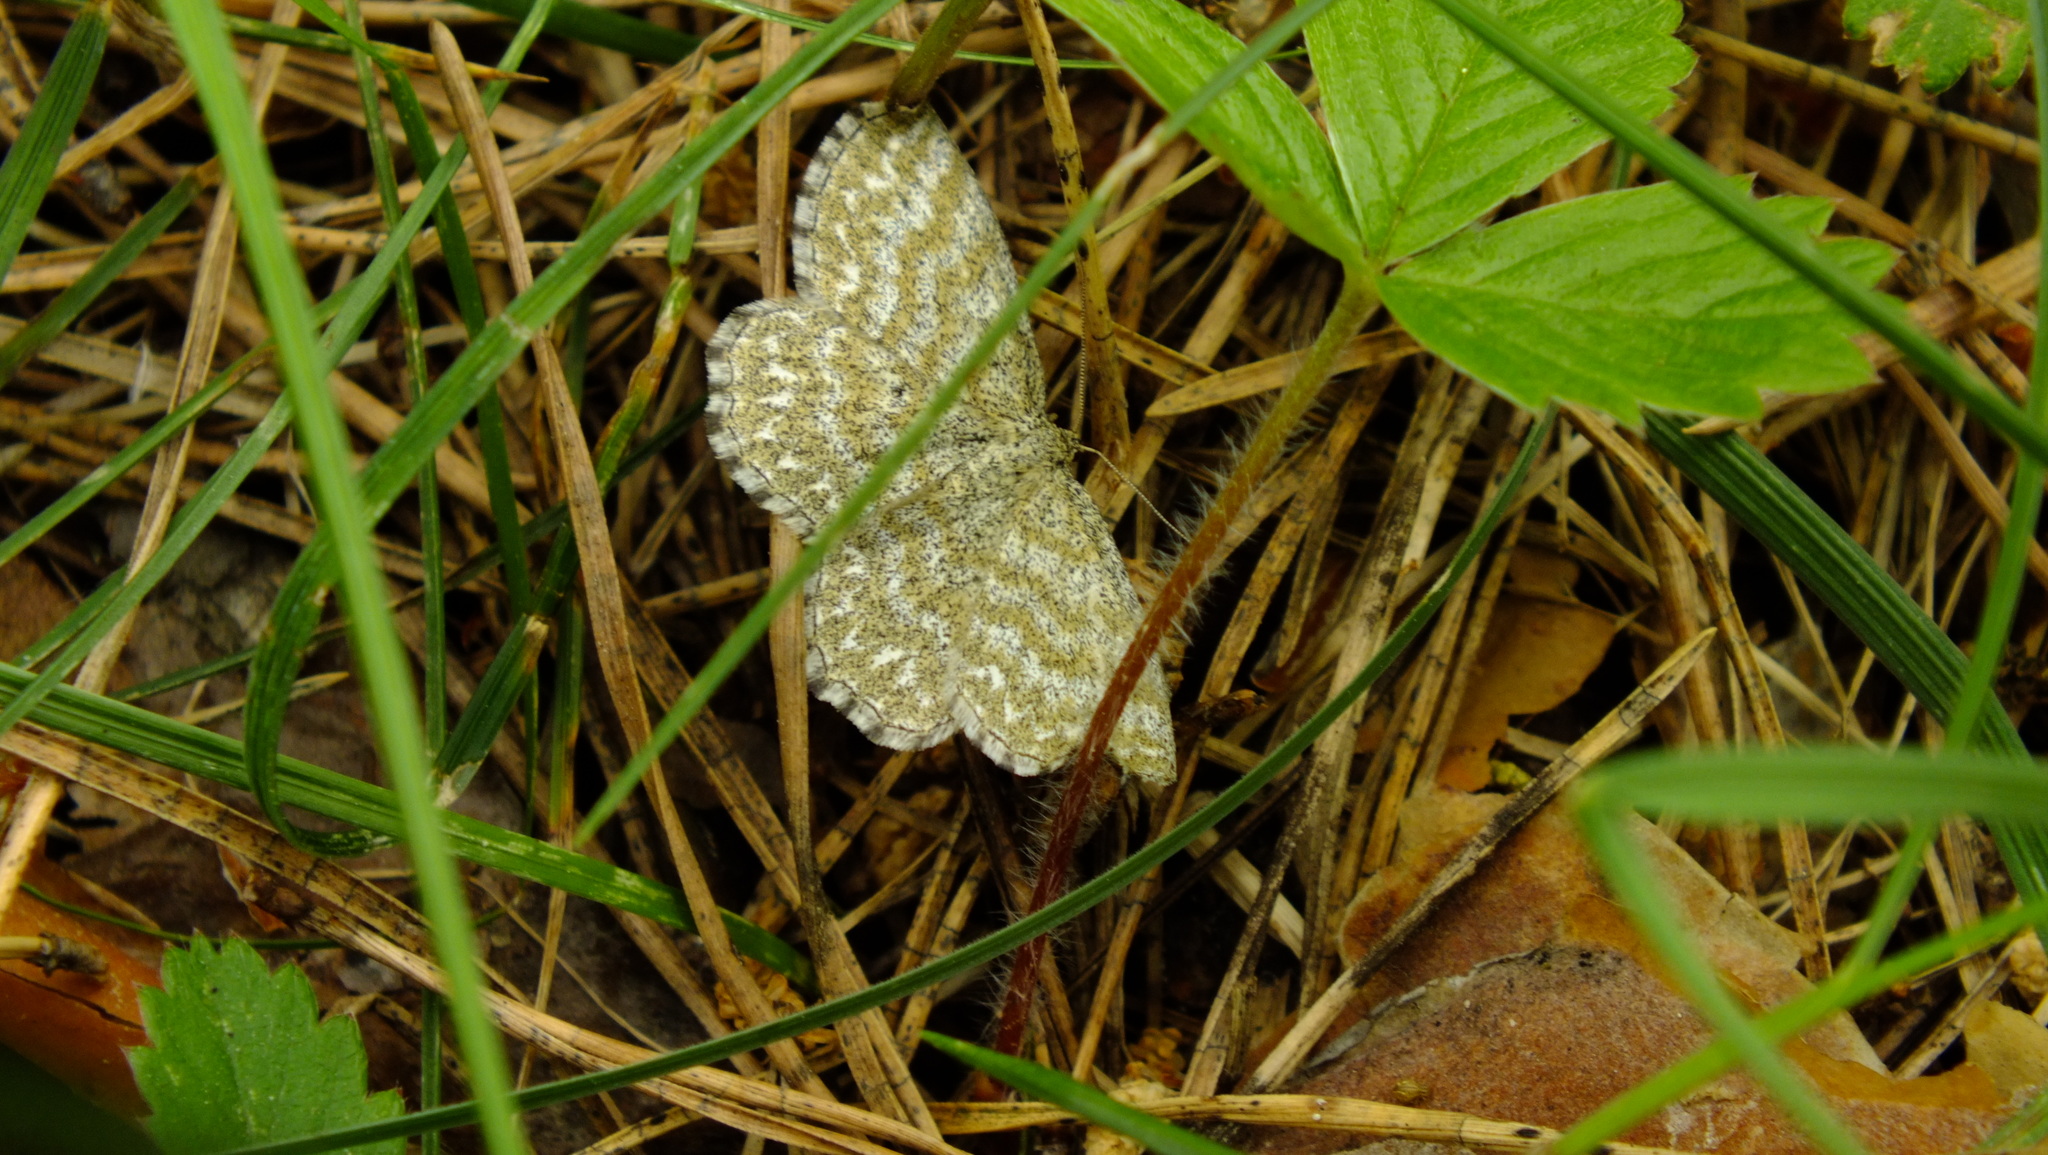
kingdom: Animalia
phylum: Arthropoda
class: Insecta
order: Lepidoptera
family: Geometridae
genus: Scopula
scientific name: Scopula immorata
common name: Lewes wave
